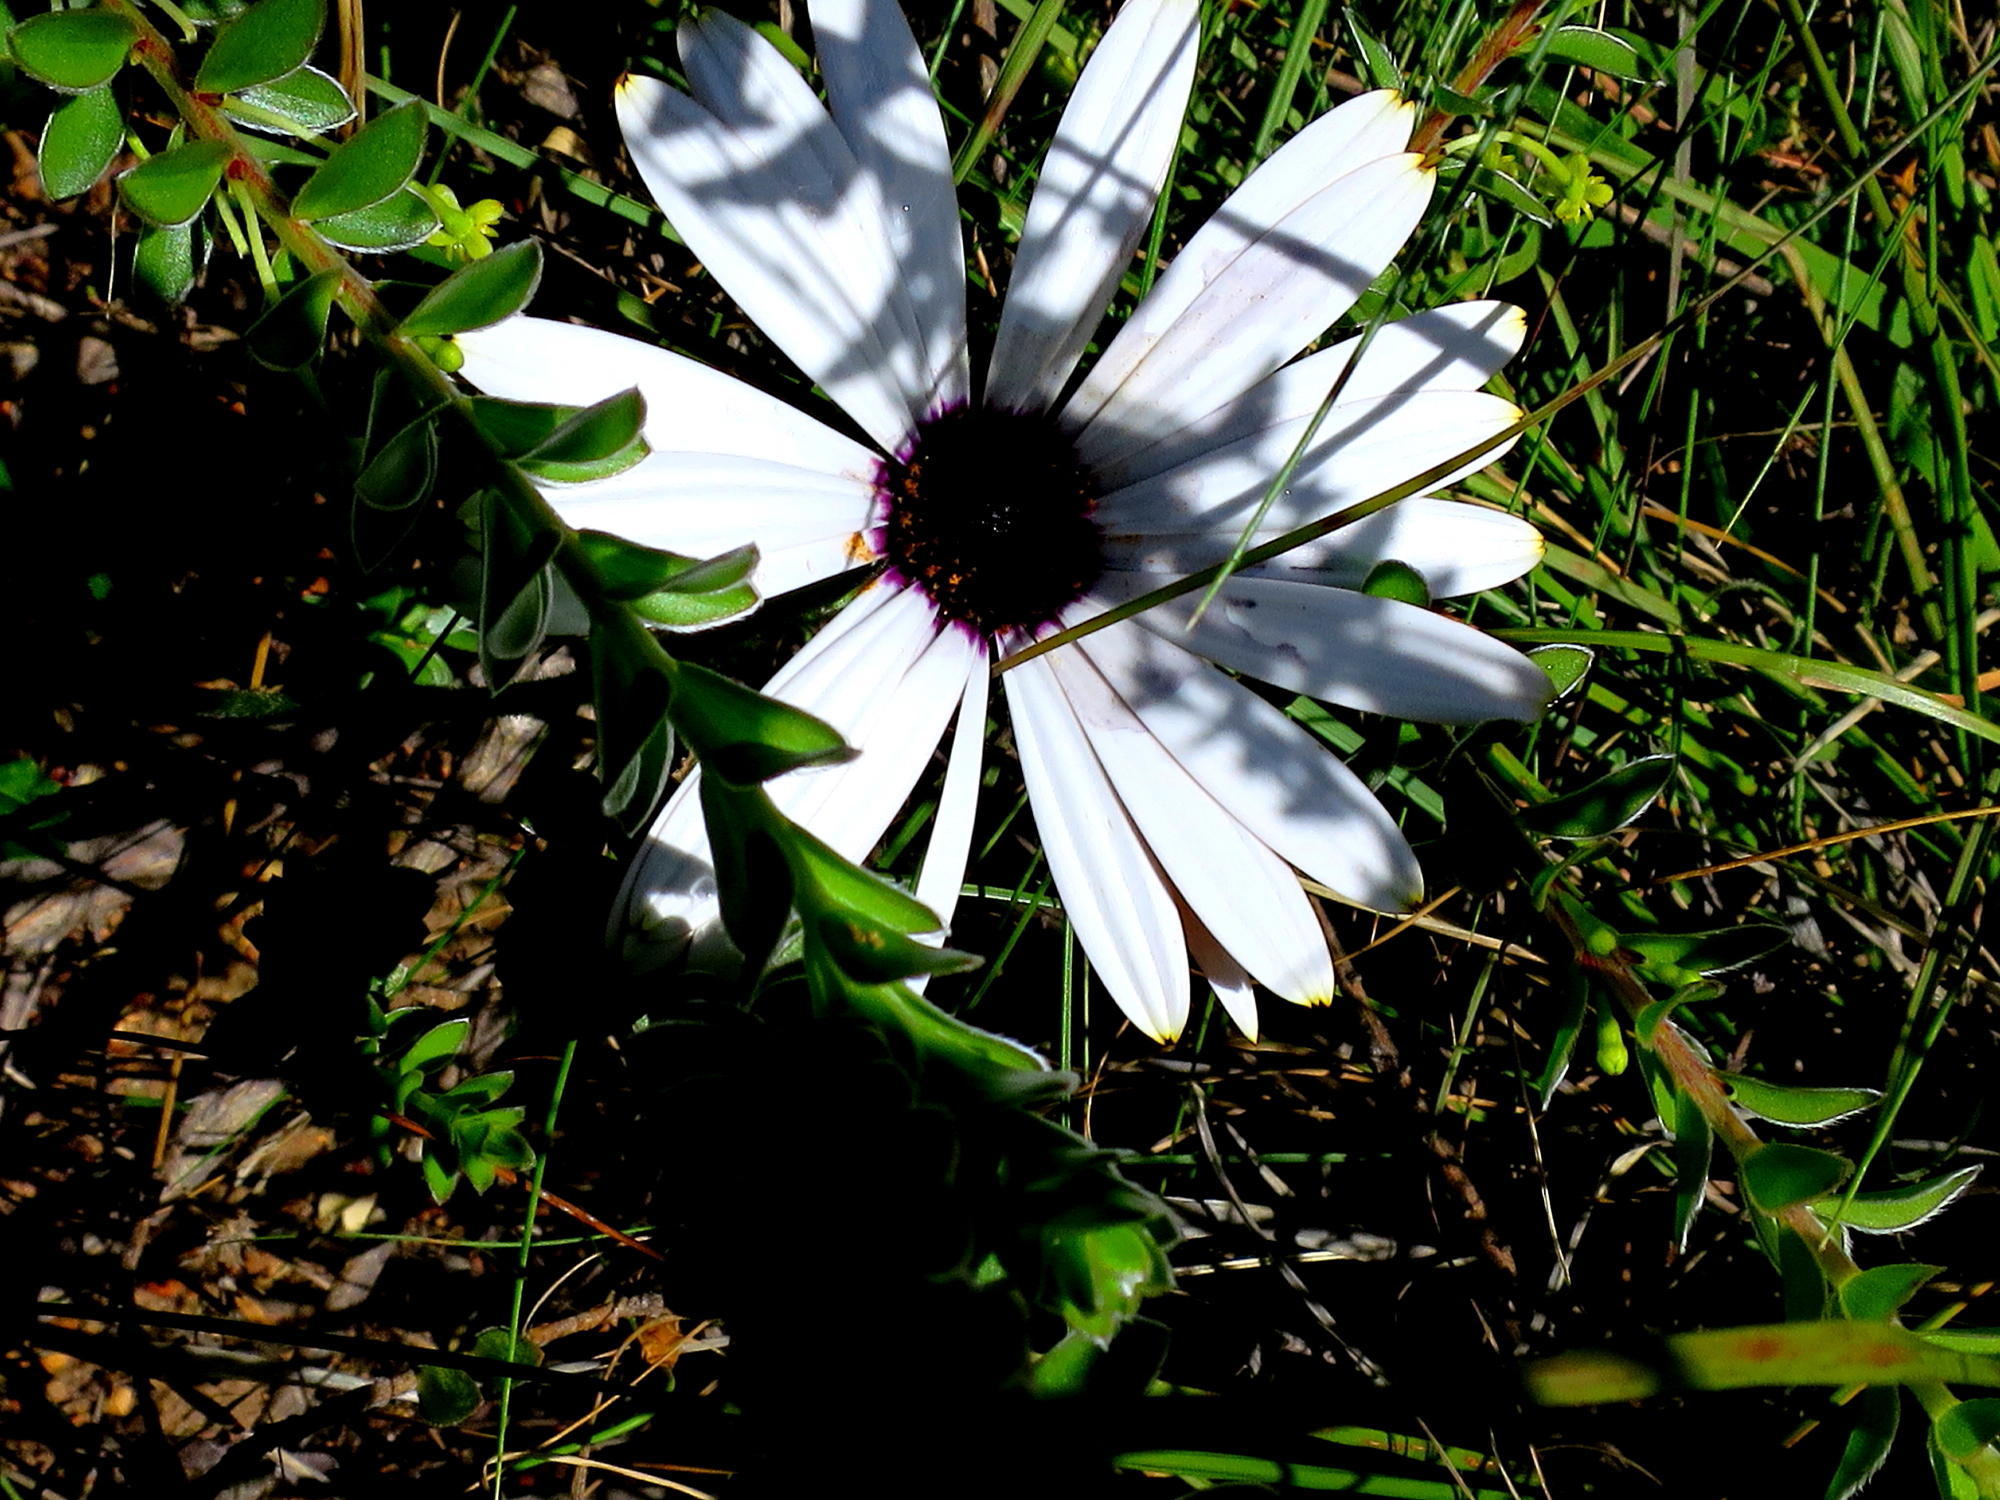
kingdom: Plantae
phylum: Tracheophyta
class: Magnoliopsida
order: Asterales
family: Asteraceae
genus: Dimorphotheca
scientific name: Dimorphotheca nudicaulis
